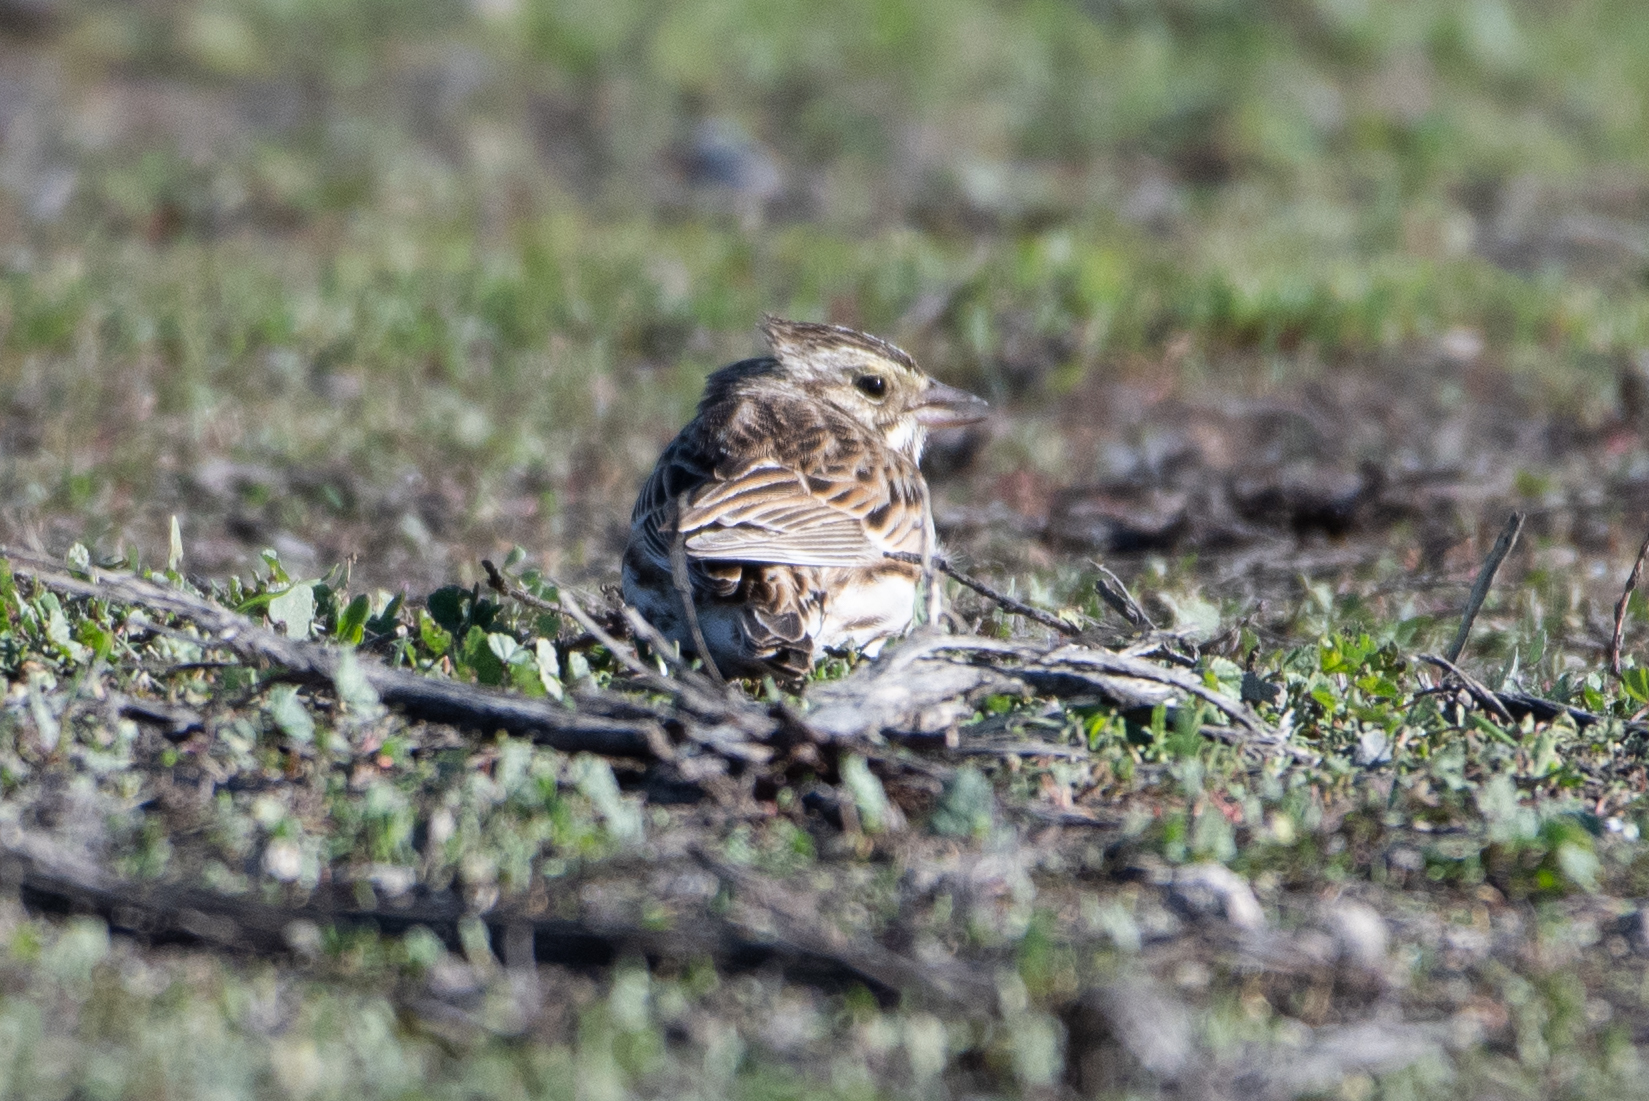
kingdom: Animalia
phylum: Chordata
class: Aves
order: Passeriformes
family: Passerellidae
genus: Passerculus
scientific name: Passerculus sandwichensis
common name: Savannah sparrow
